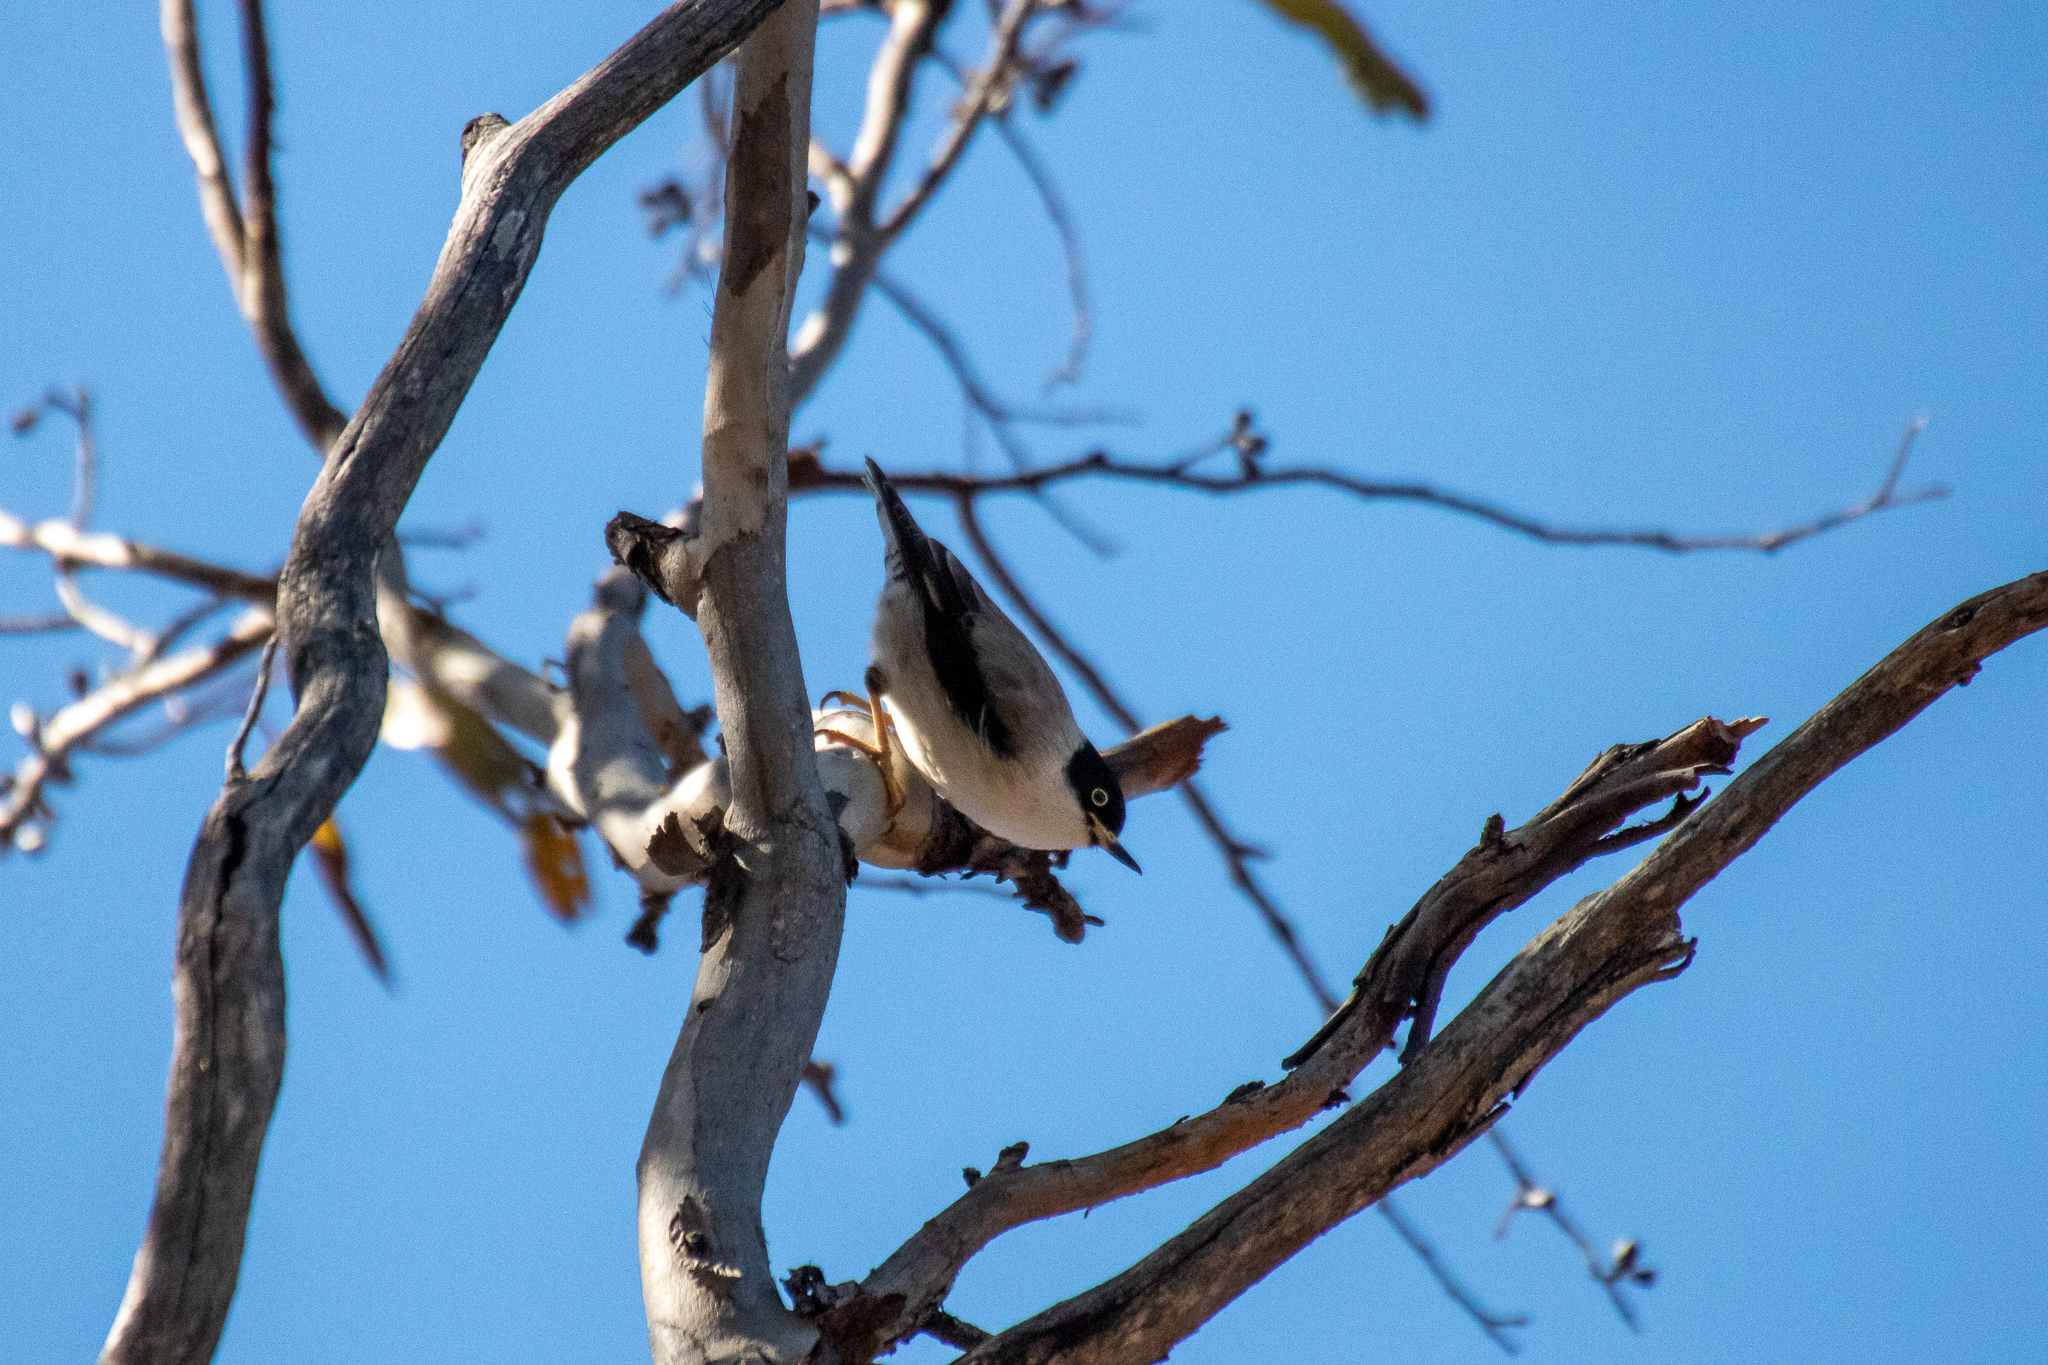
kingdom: Animalia
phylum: Chordata
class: Aves
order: Passeriformes
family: Neosittidae
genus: Daphoenositta
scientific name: Daphoenositta chrysoptera
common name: Varied sittella
